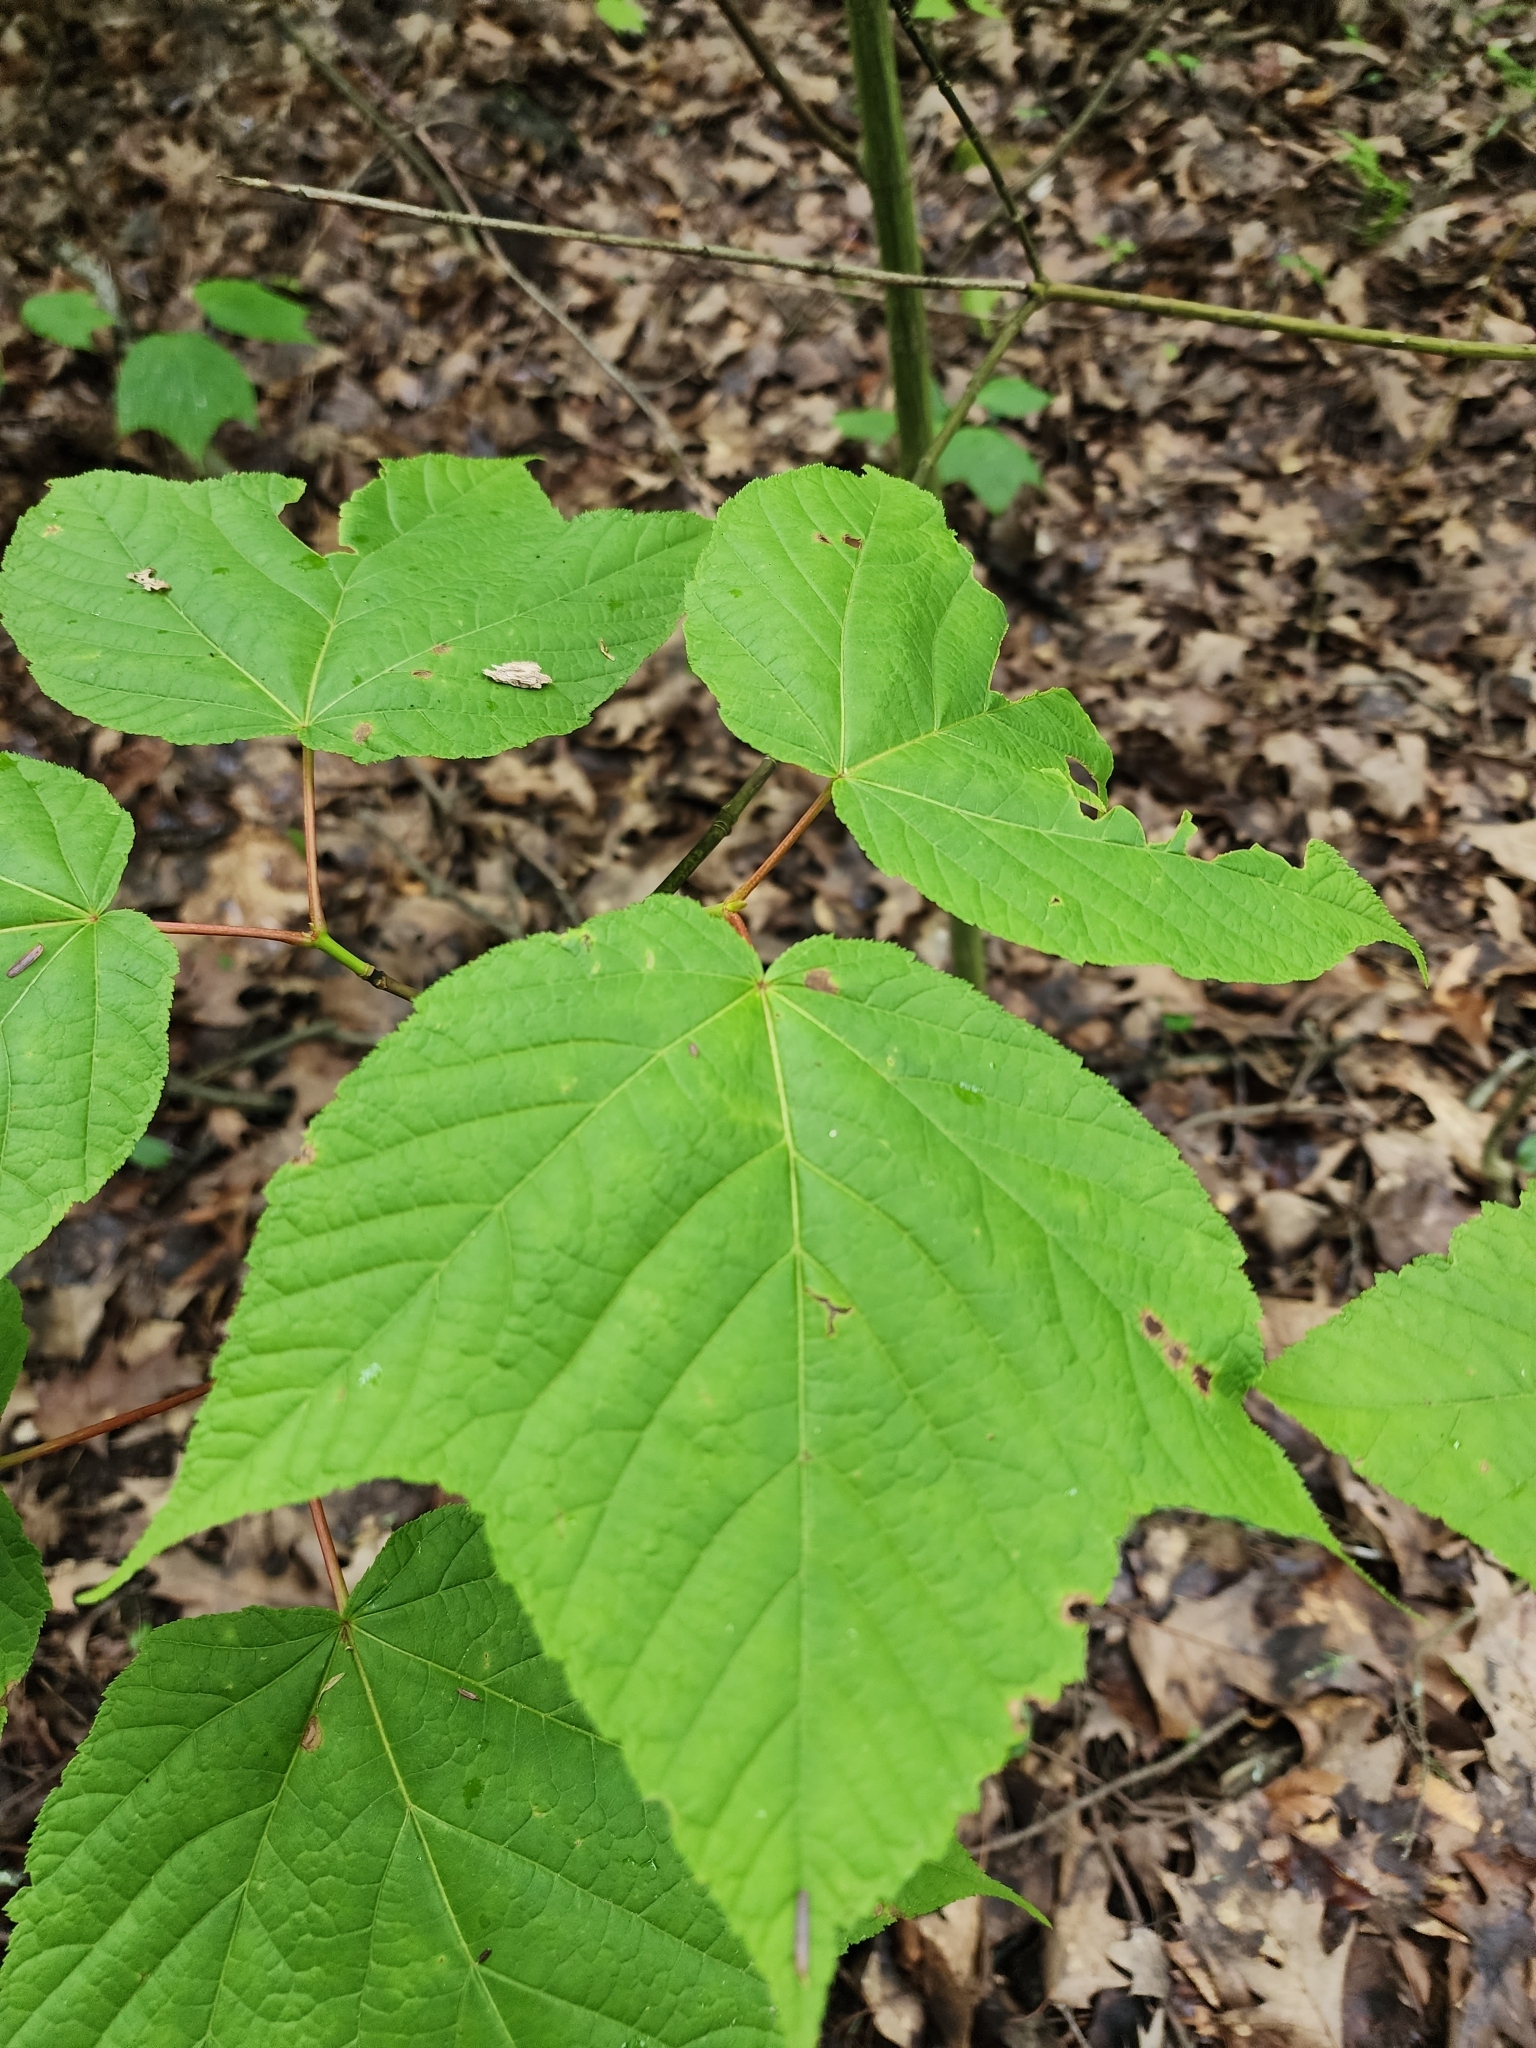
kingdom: Plantae
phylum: Tracheophyta
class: Magnoliopsida
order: Sapindales
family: Sapindaceae
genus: Acer
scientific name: Acer pensylvanicum
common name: Moosewood
